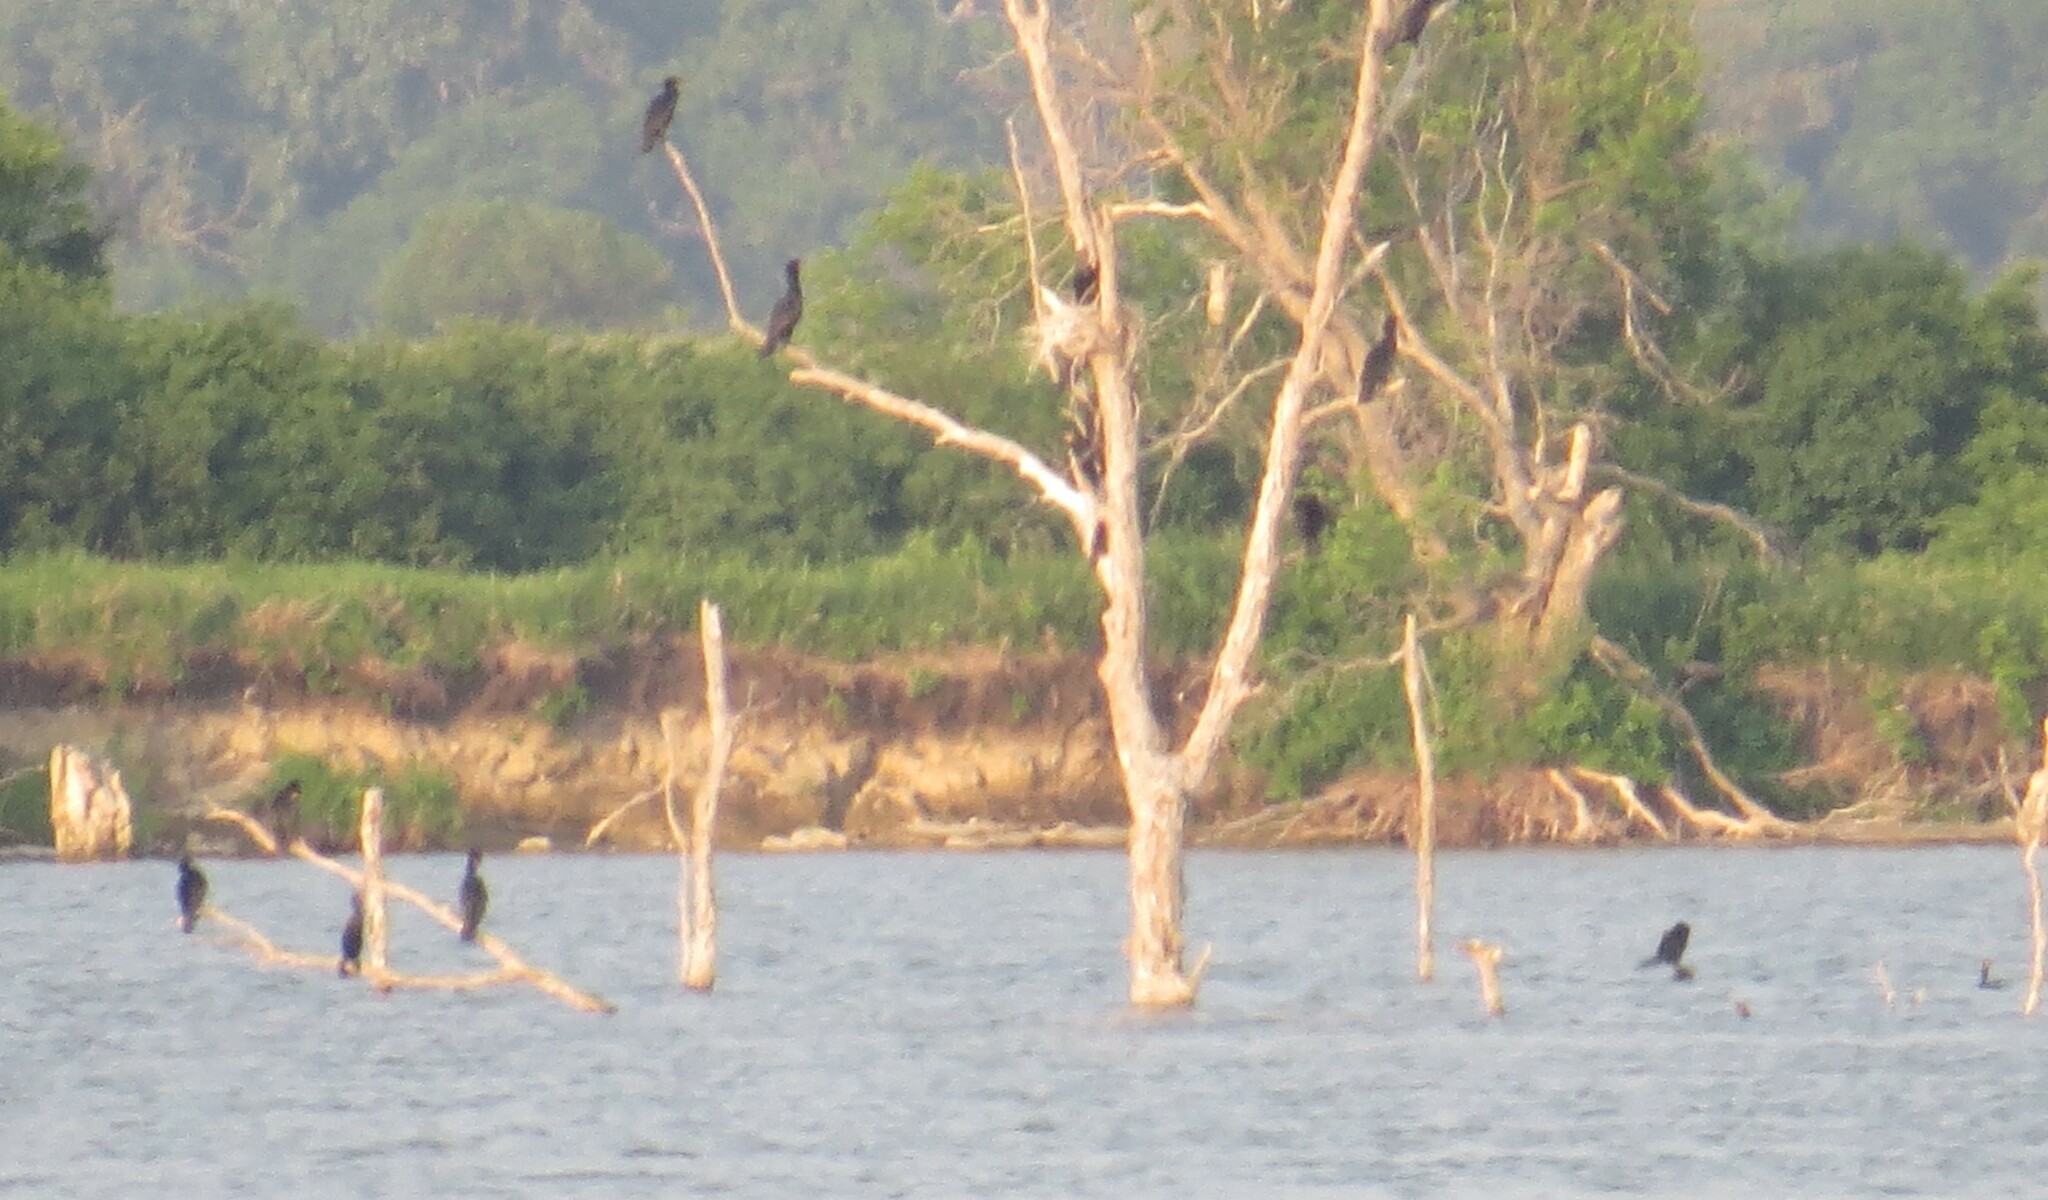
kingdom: Animalia
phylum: Chordata
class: Aves
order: Suliformes
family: Phalacrocoracidae
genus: Phalacrocorax
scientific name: Phalacrocorax auritus
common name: Double-crested cormorant
